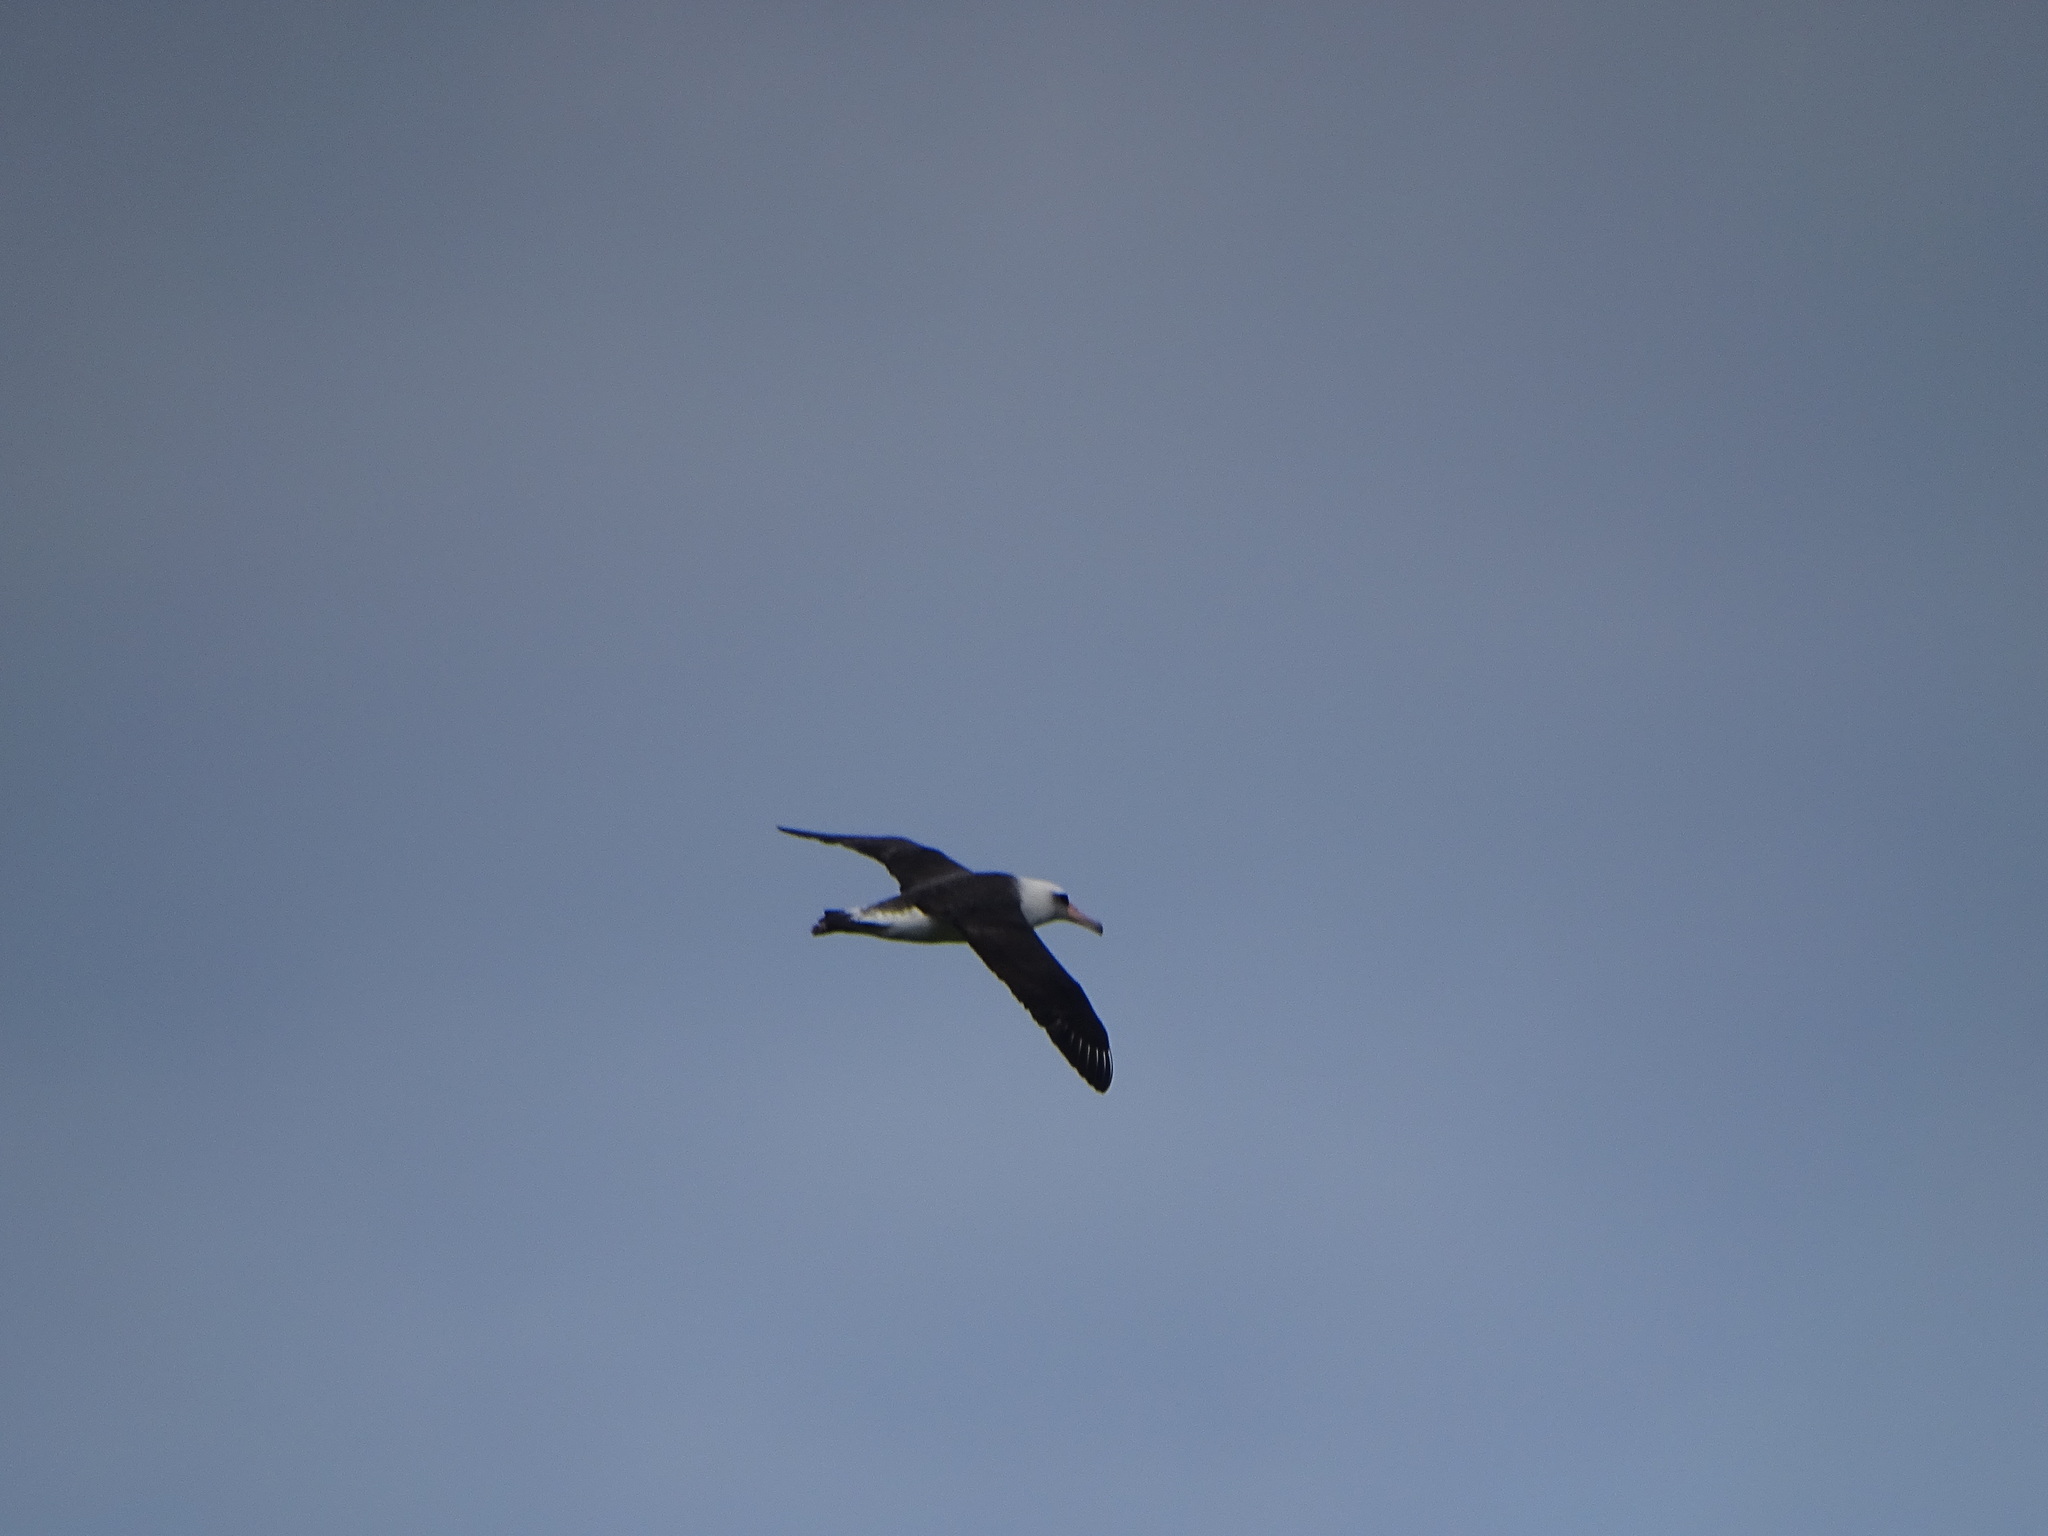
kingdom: Animalia
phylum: Chordata
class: Aves
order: Procellariiformes
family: Diomedeidae
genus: Phoebastria
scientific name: Phoebastria immutabilis
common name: Laysan albatross
